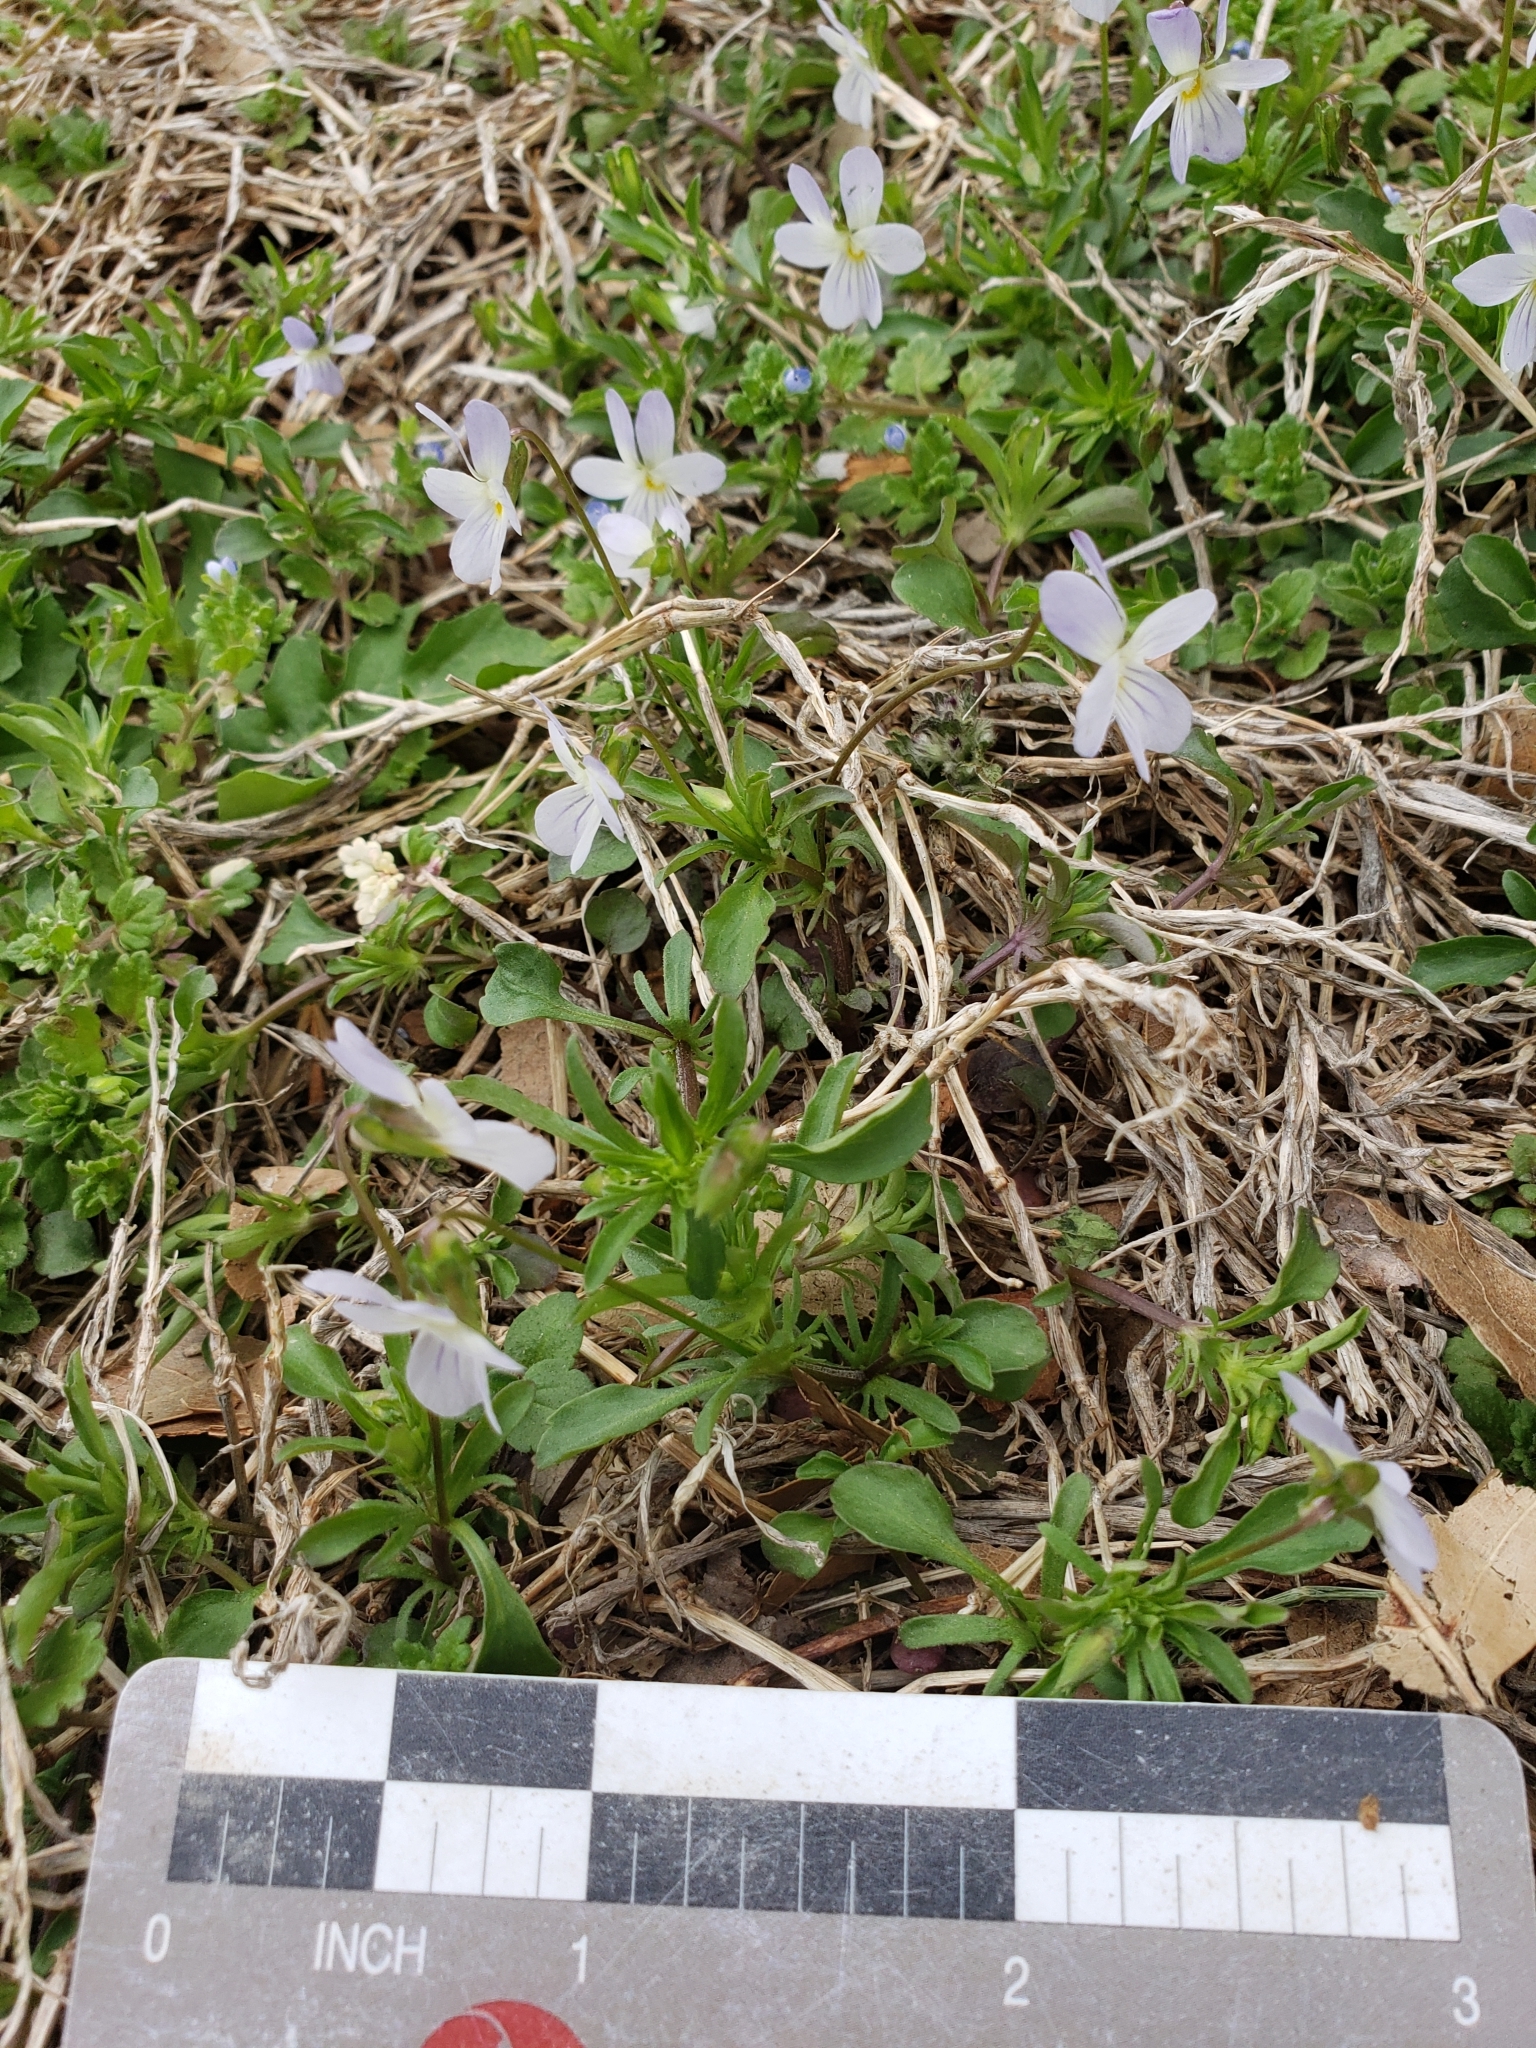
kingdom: Plantae
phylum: Tracheophyta
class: Magnoliopsida
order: Malpighiales
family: Violaceae
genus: Viola
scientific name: Viola rafinesquei
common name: American field pansy
